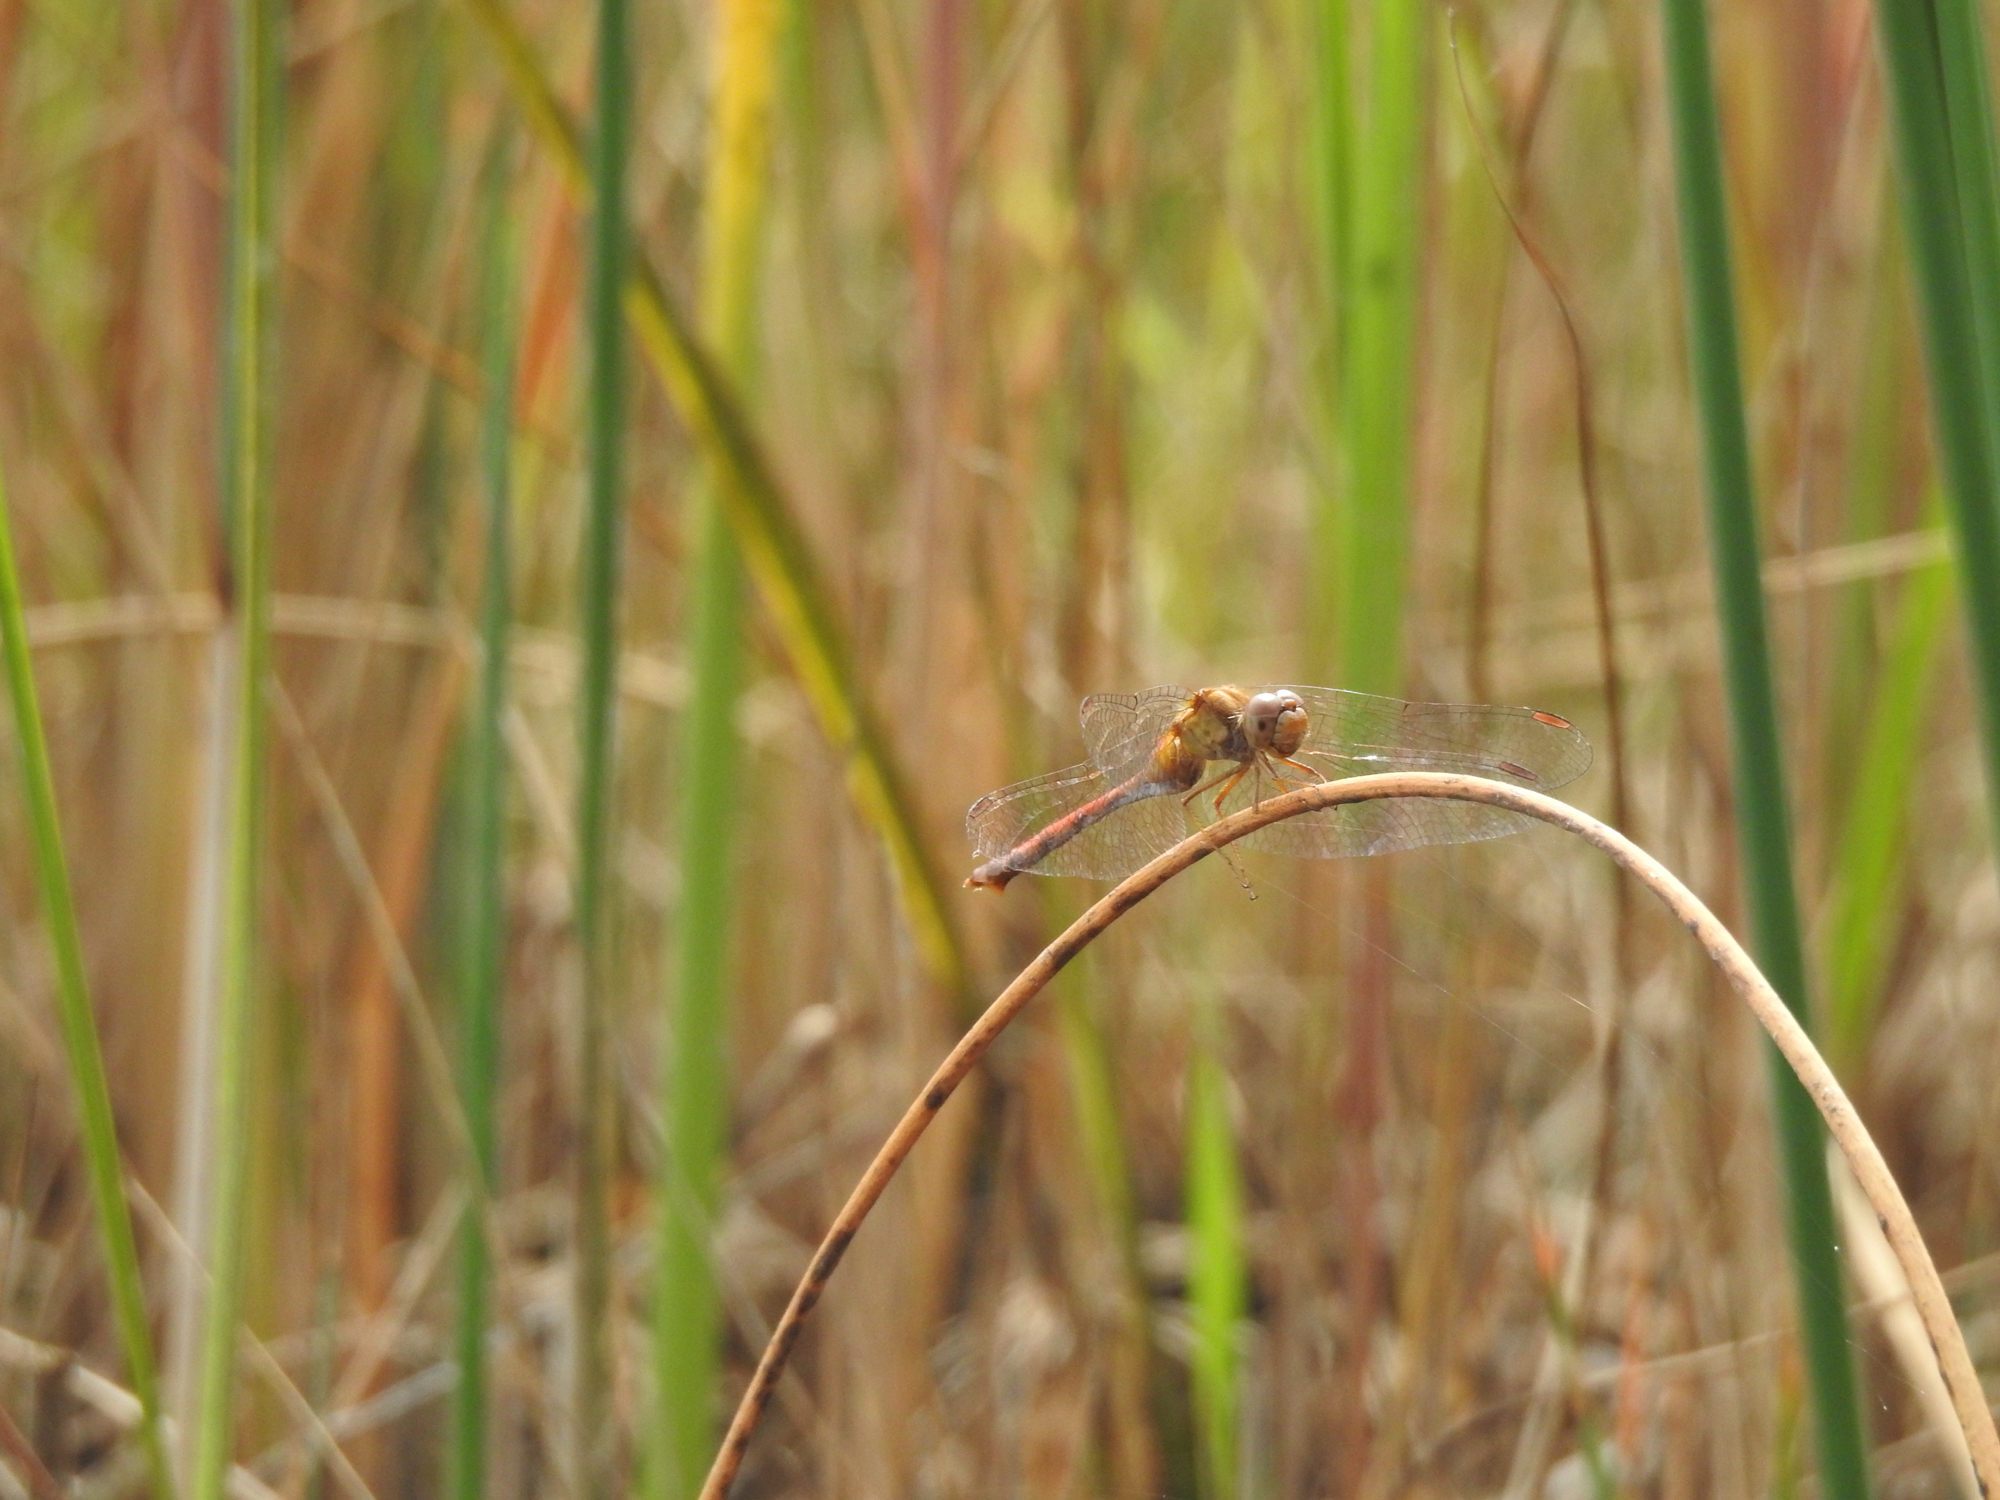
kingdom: Animalia
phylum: Arthropoda
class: Insecta
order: Odonata
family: Libellulidae
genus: Sympetrum
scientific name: Sympetrum vicinum
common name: Autumn meadowhawk
